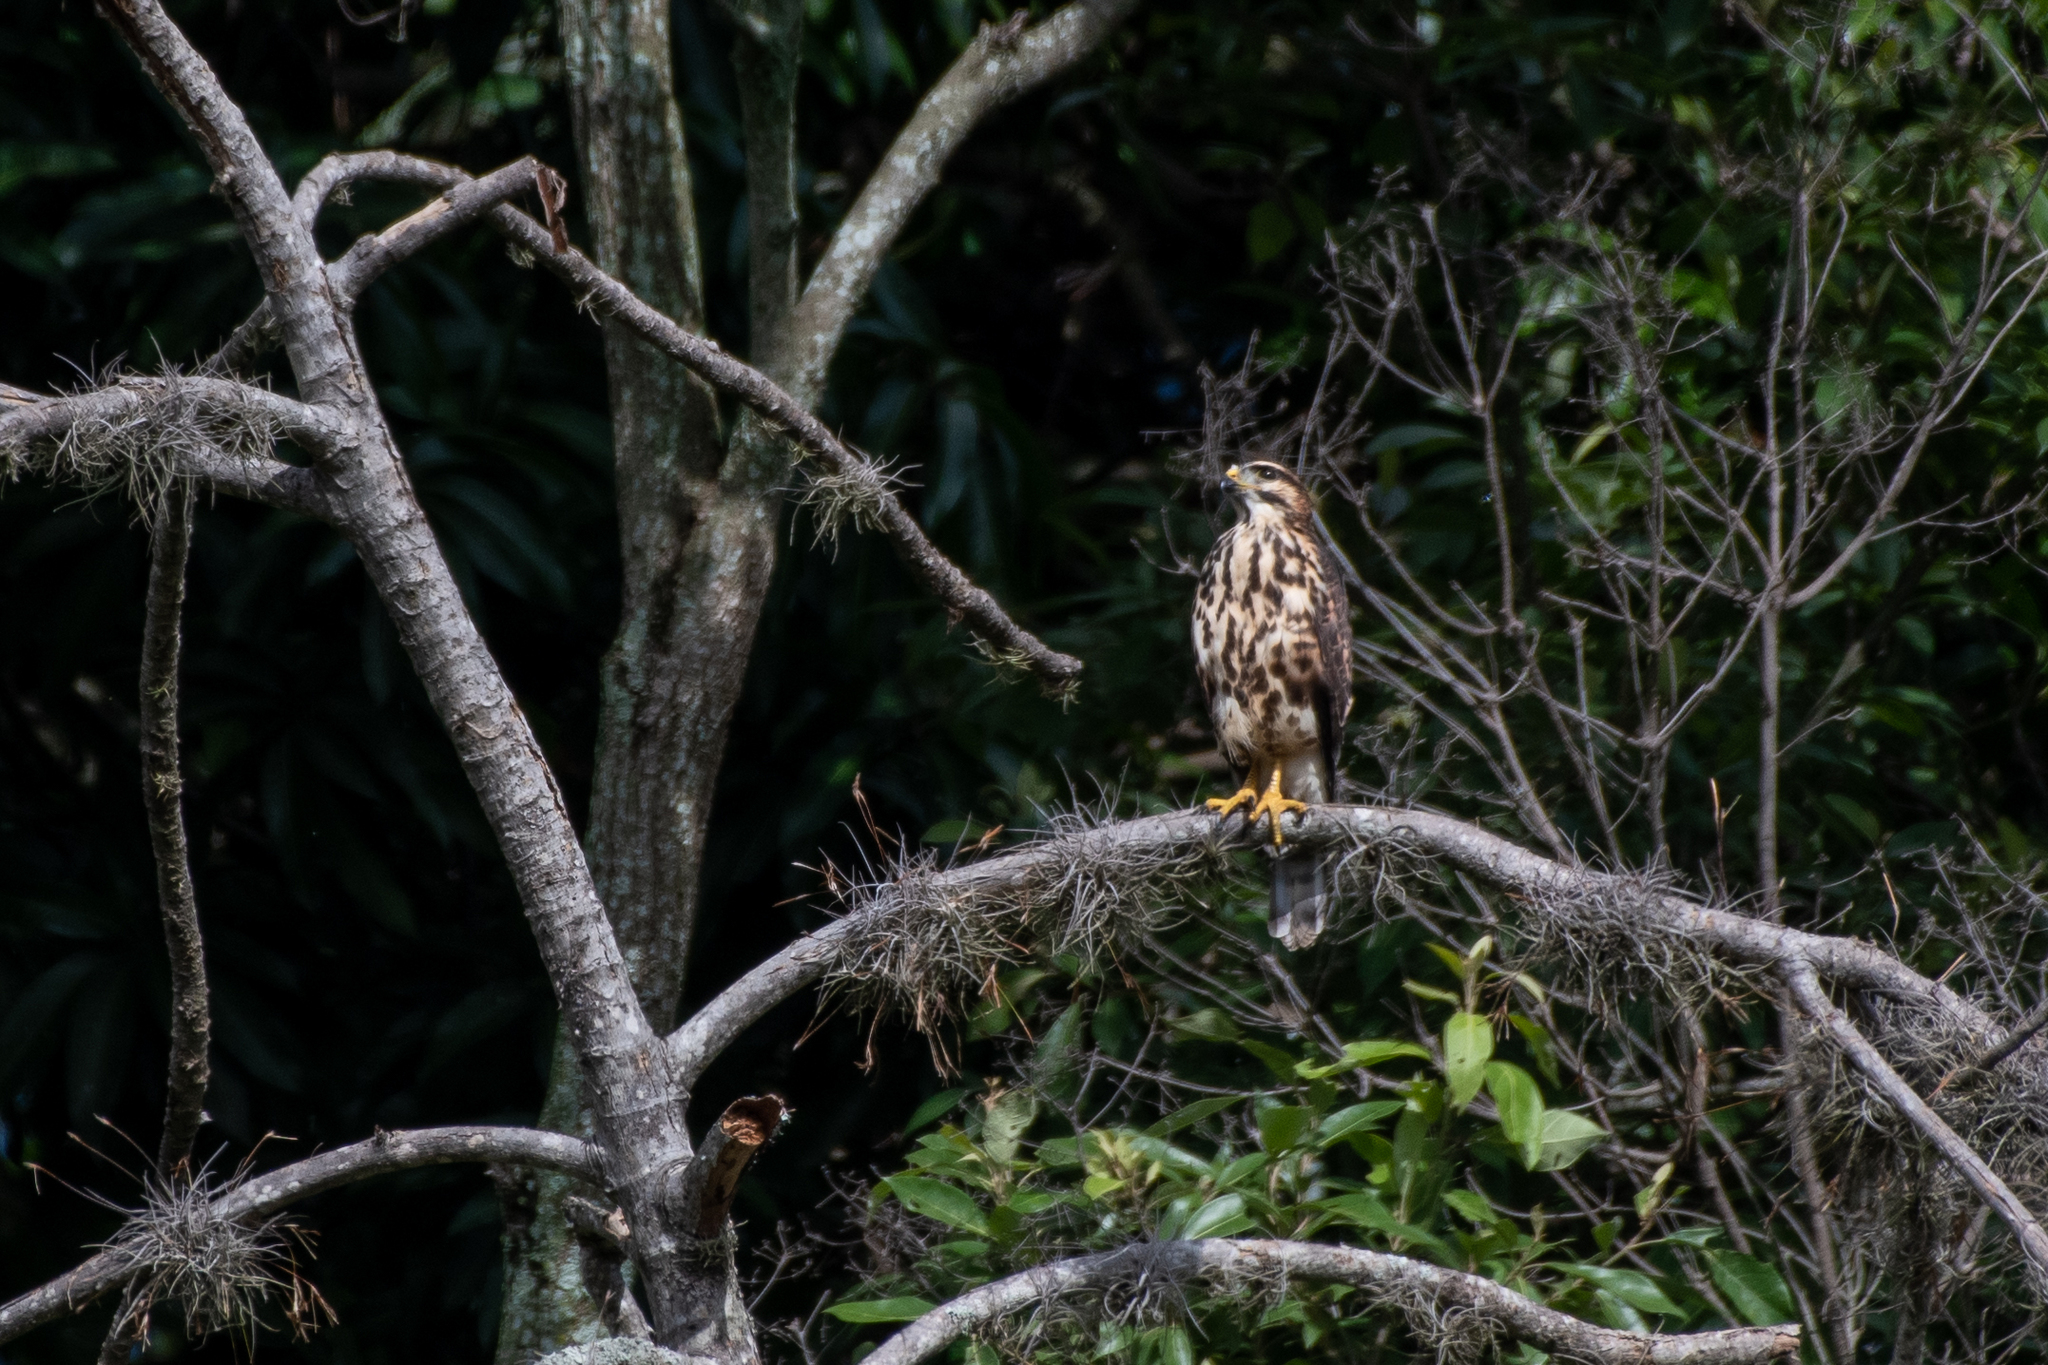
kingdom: Animalia
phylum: Chordata
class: Aves
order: Accipitriformes
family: Accipitridae
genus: Buteo
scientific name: Buteo nitidus
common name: Grey-lined hawk
